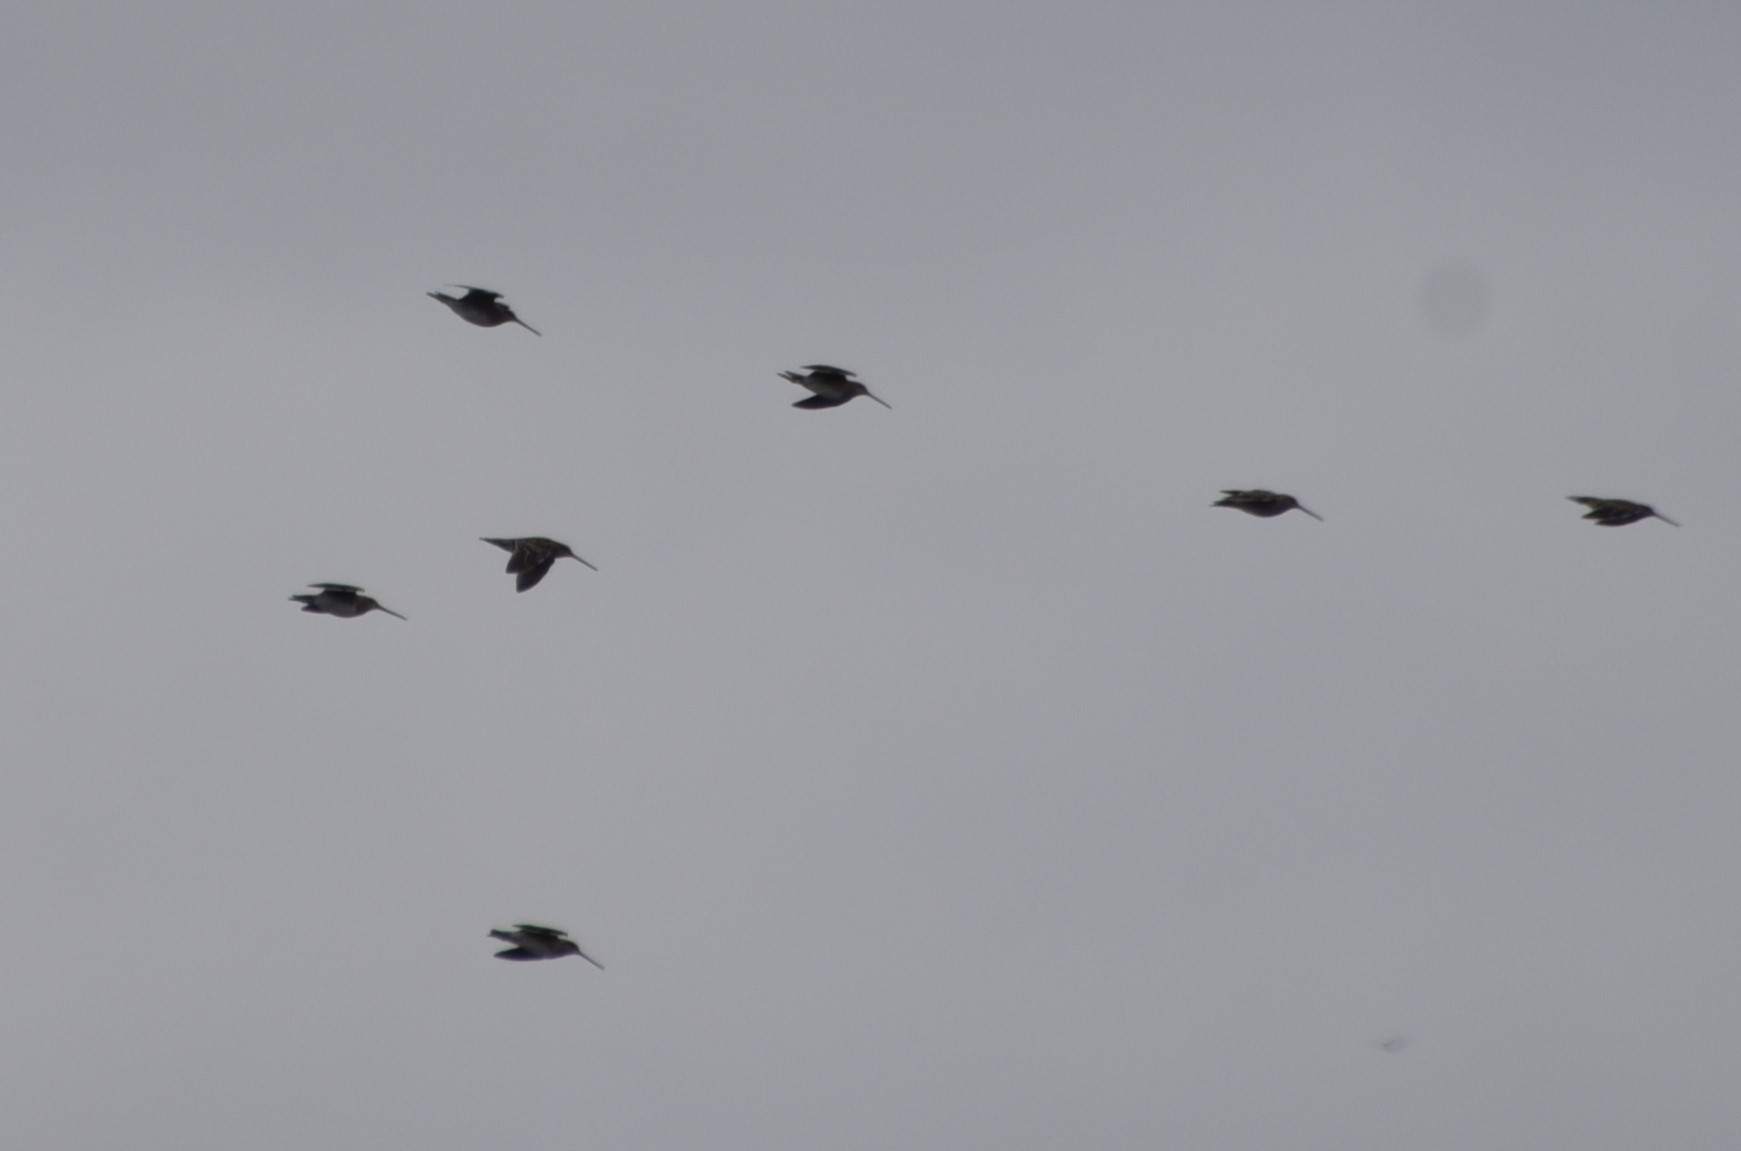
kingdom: Animalia
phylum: Chordata
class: Aves
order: Charadriiformes
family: Scolopacidae
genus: Gallinago
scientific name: Gallinago delicata
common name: Wilson's snipe
